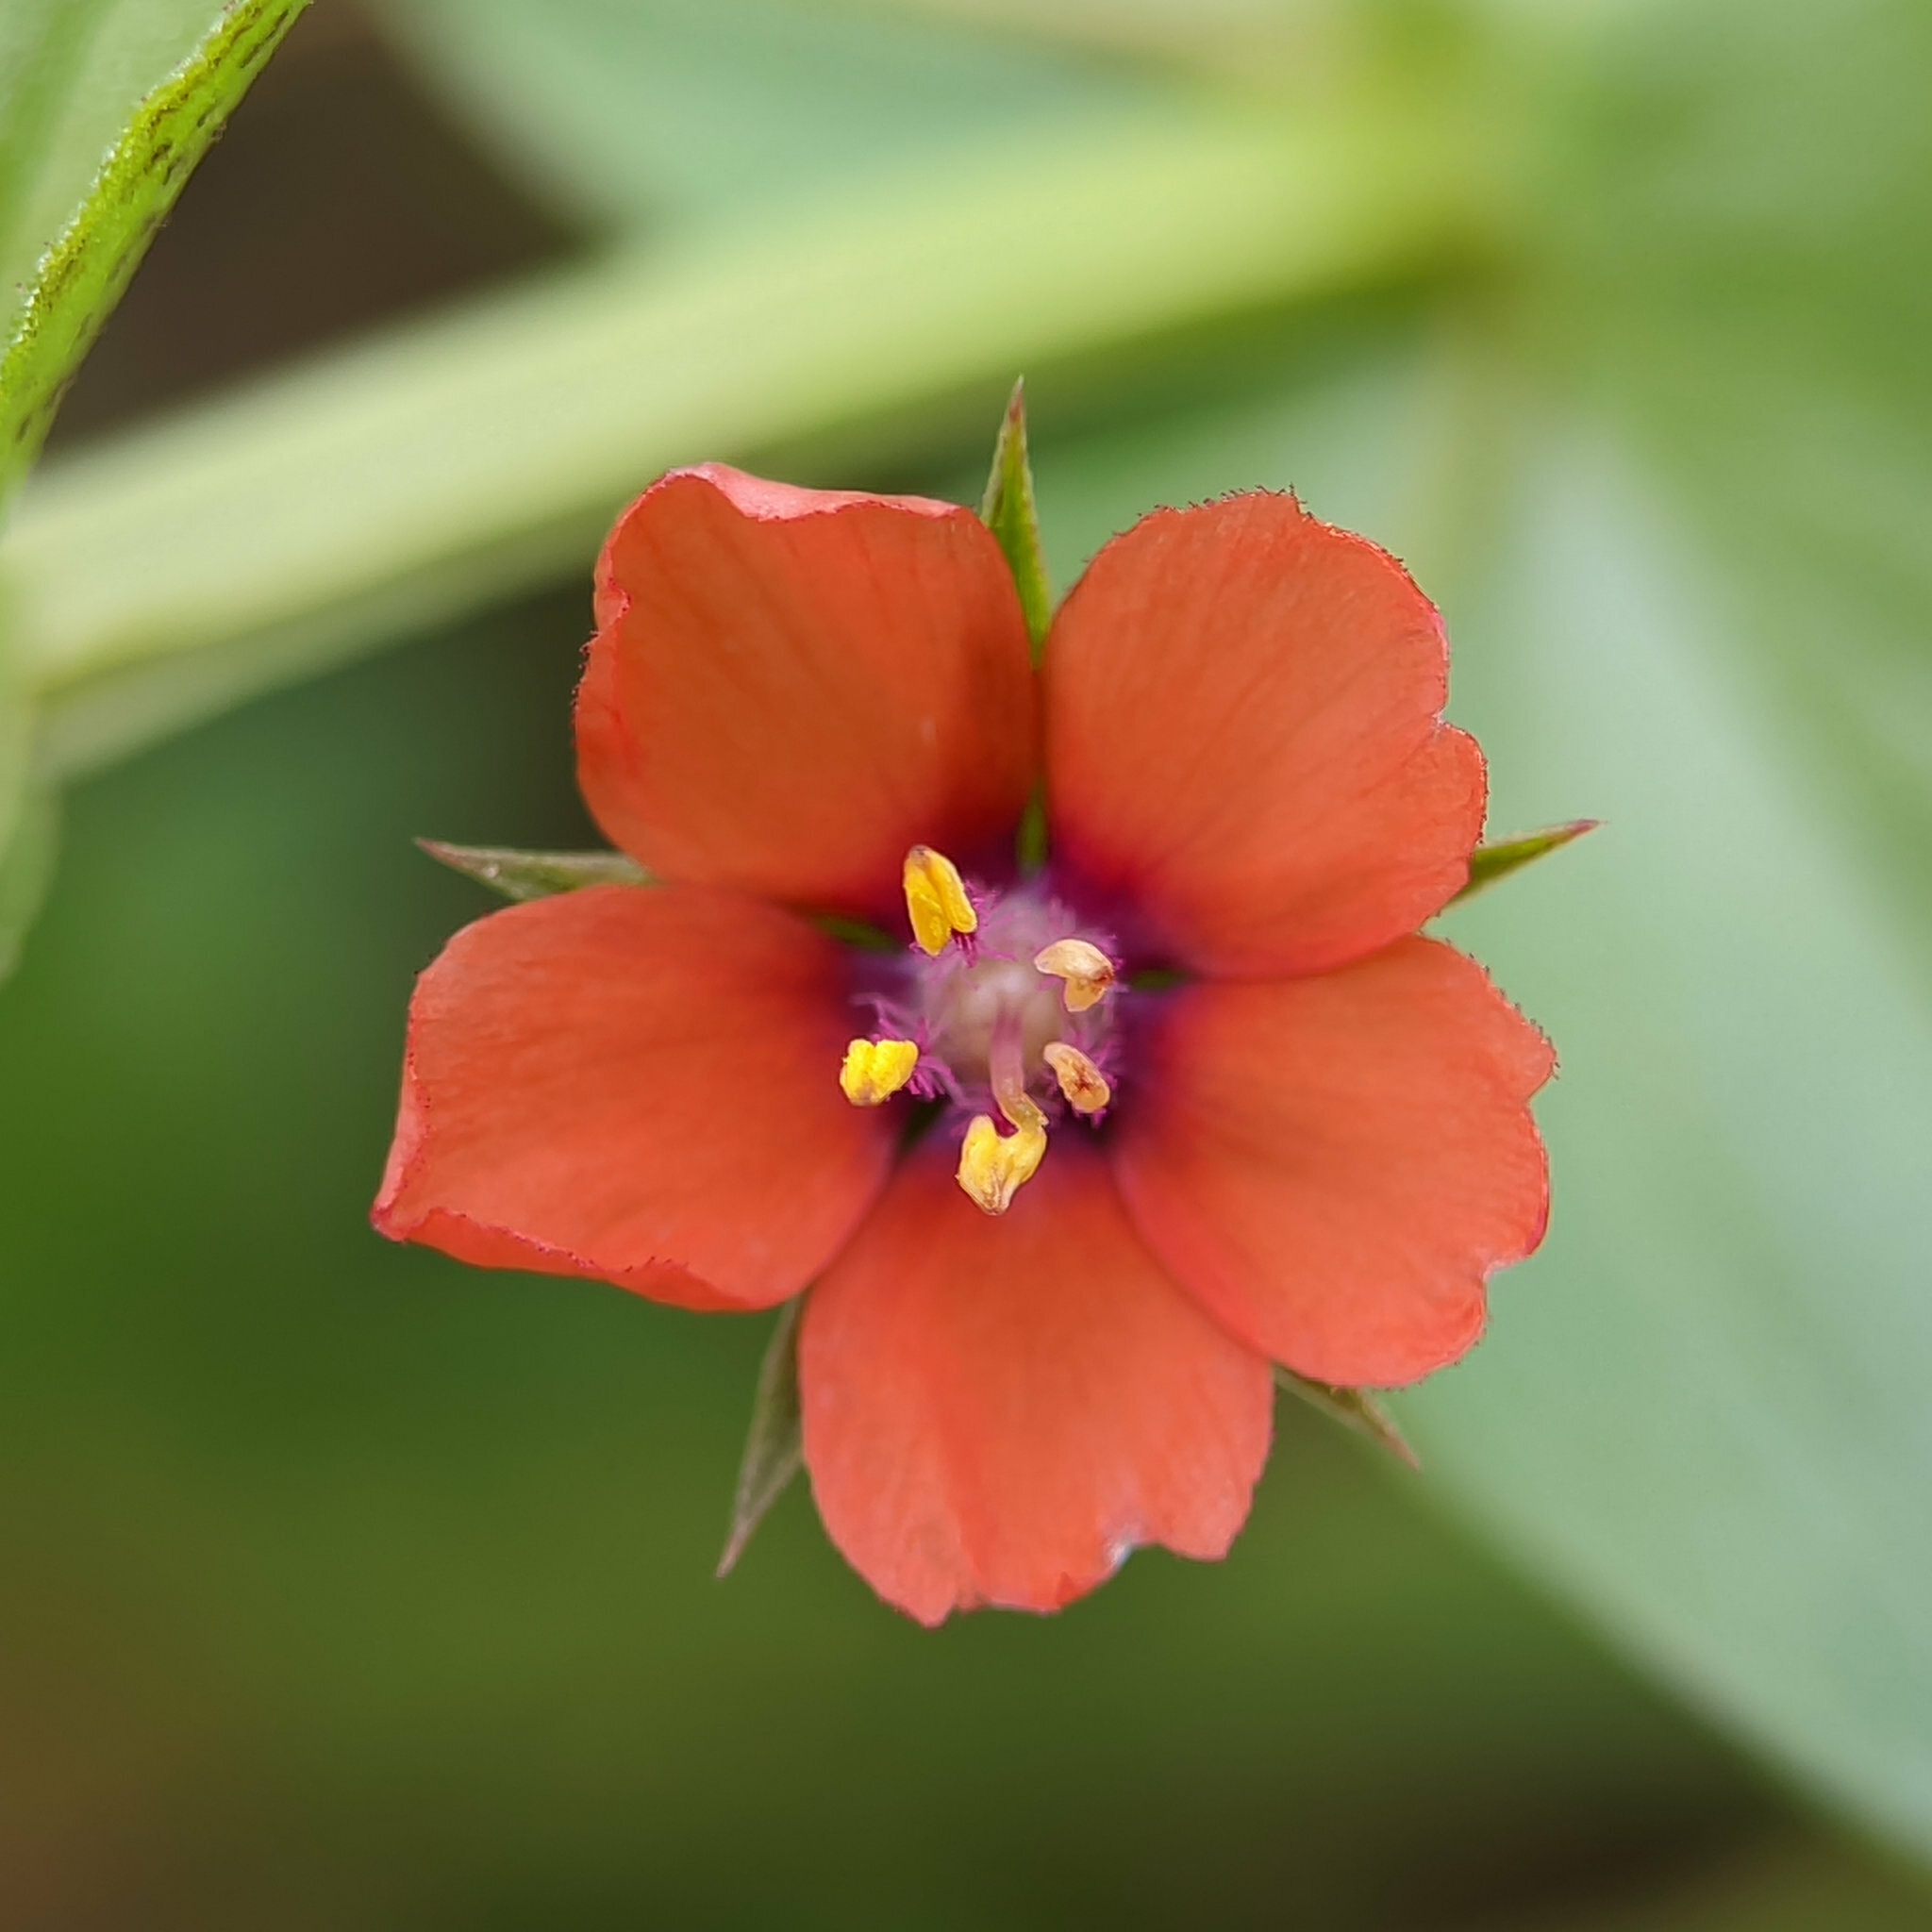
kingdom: Plantae
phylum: Tracheophyta
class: Magnoliopsida
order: Ericales
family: Primulaceae
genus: Lysimachia
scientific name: Lysimachia arvensis
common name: Scarlet pimpernel
